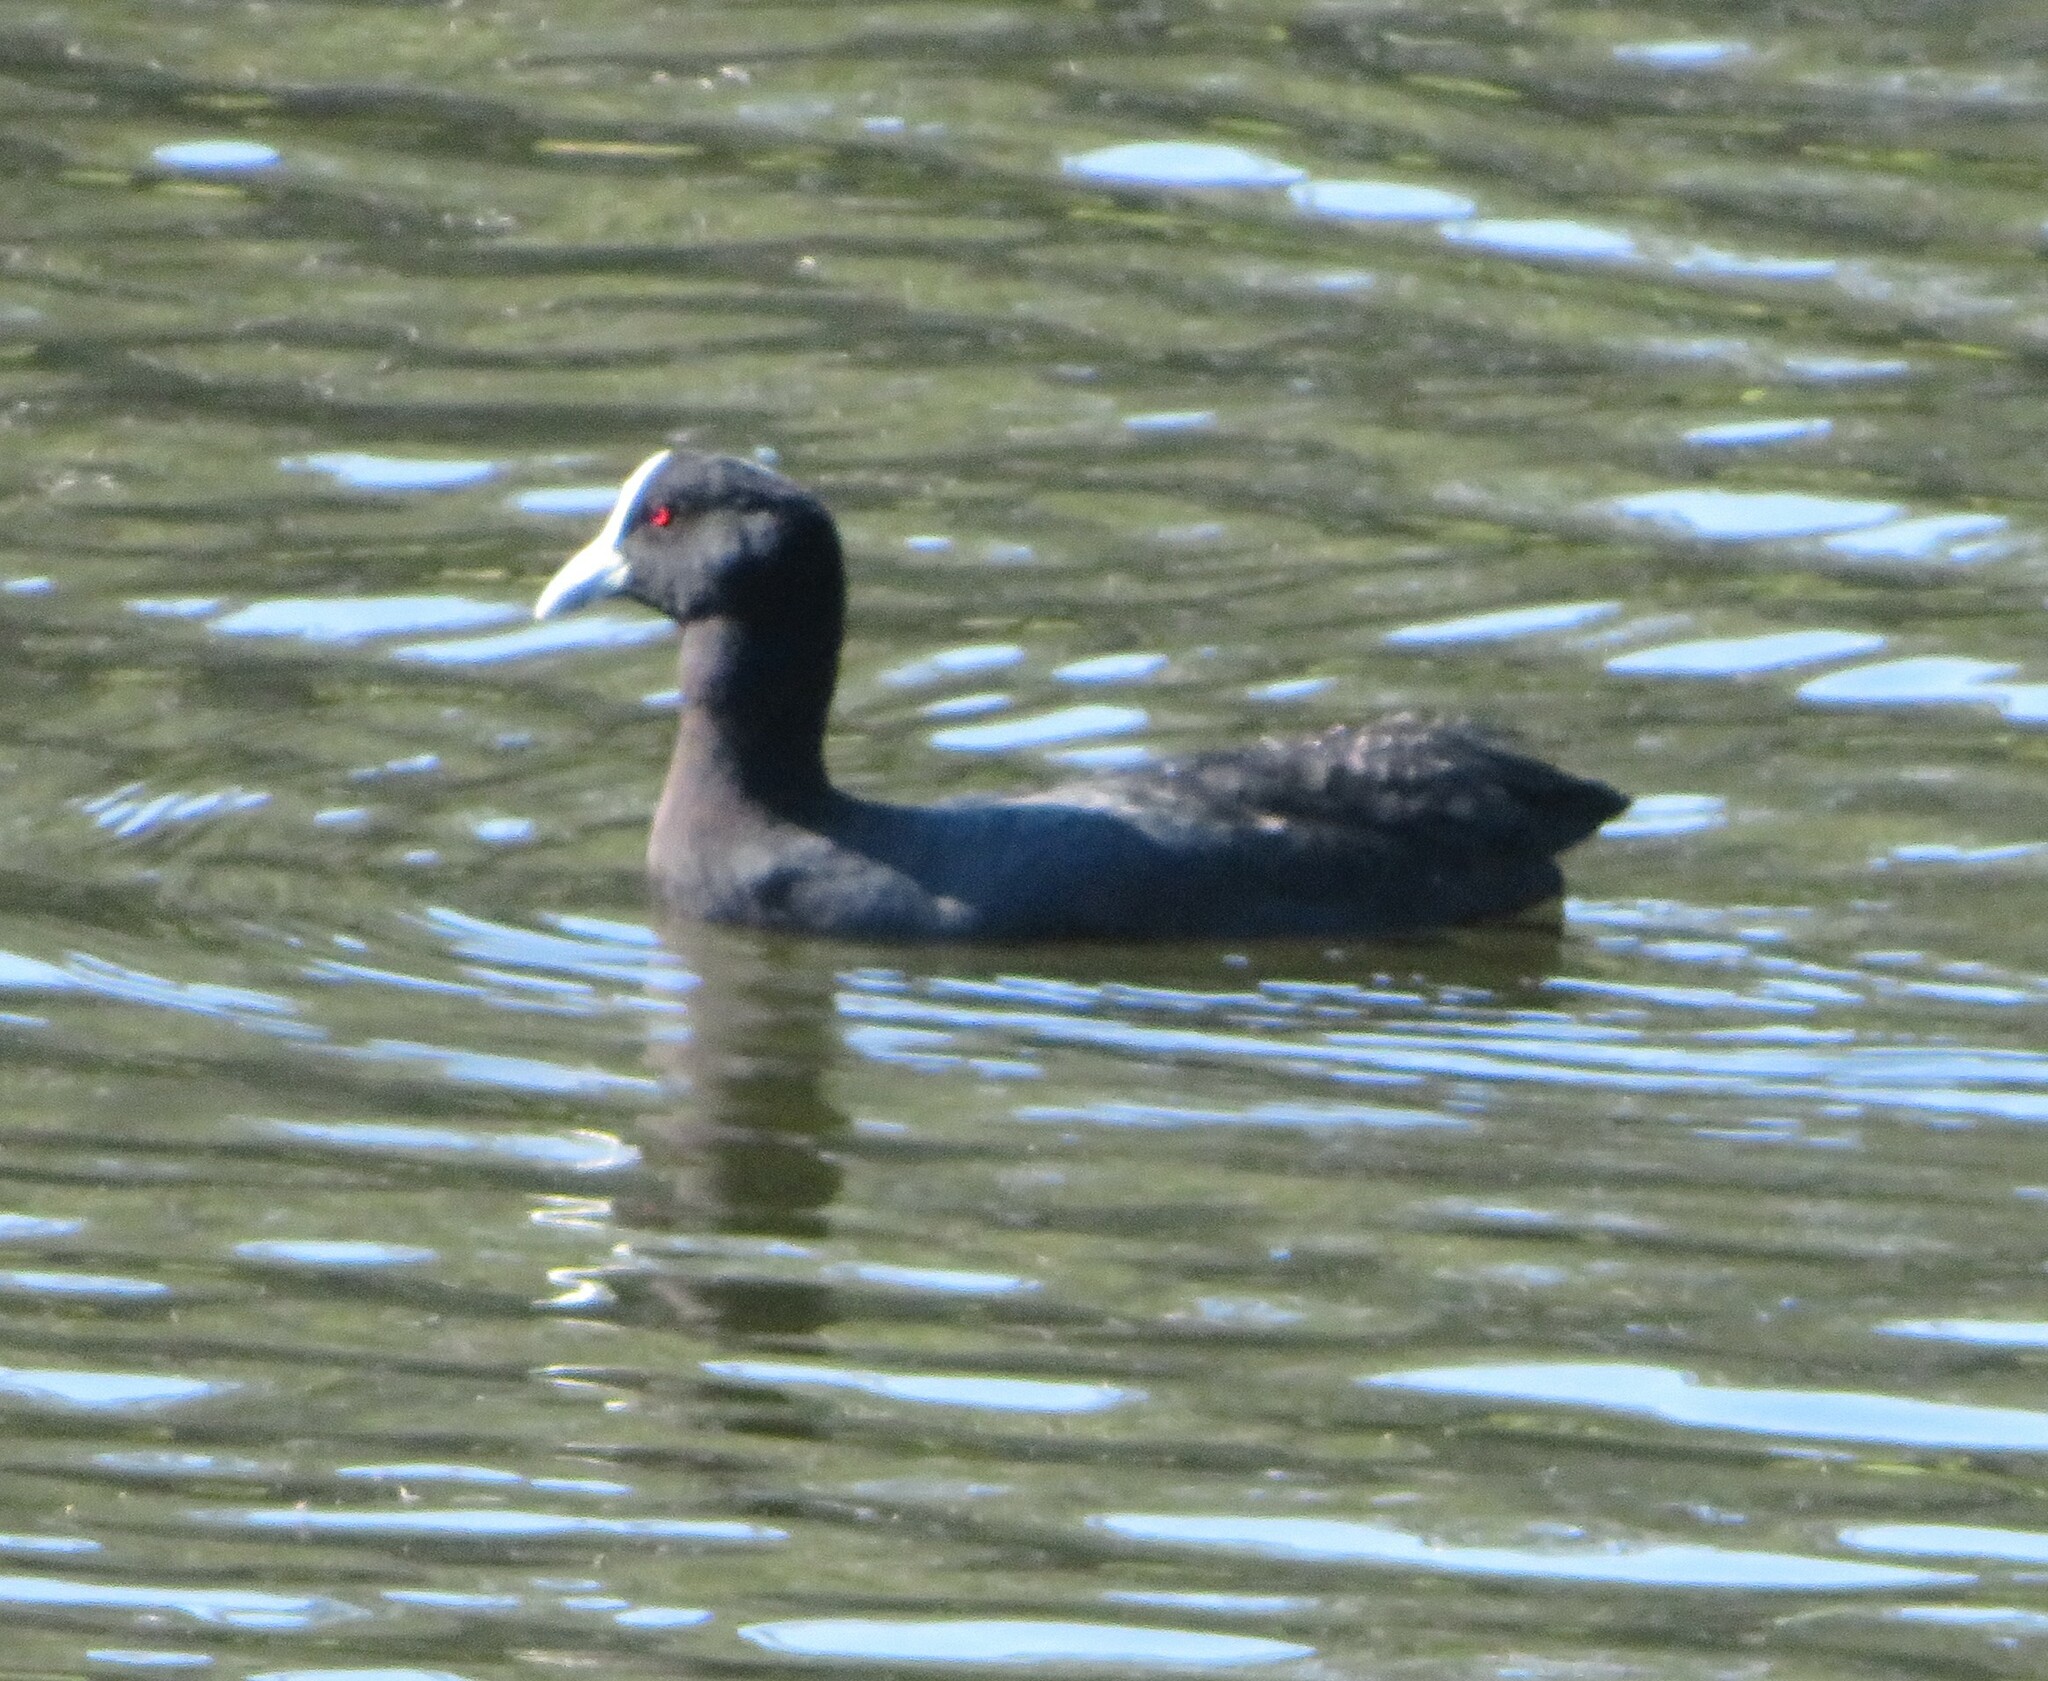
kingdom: Animalia
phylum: Chordata
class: Aves
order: Gruiformes
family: Rallidae
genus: Fulica
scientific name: Fulica atra
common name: Eurasian coot
